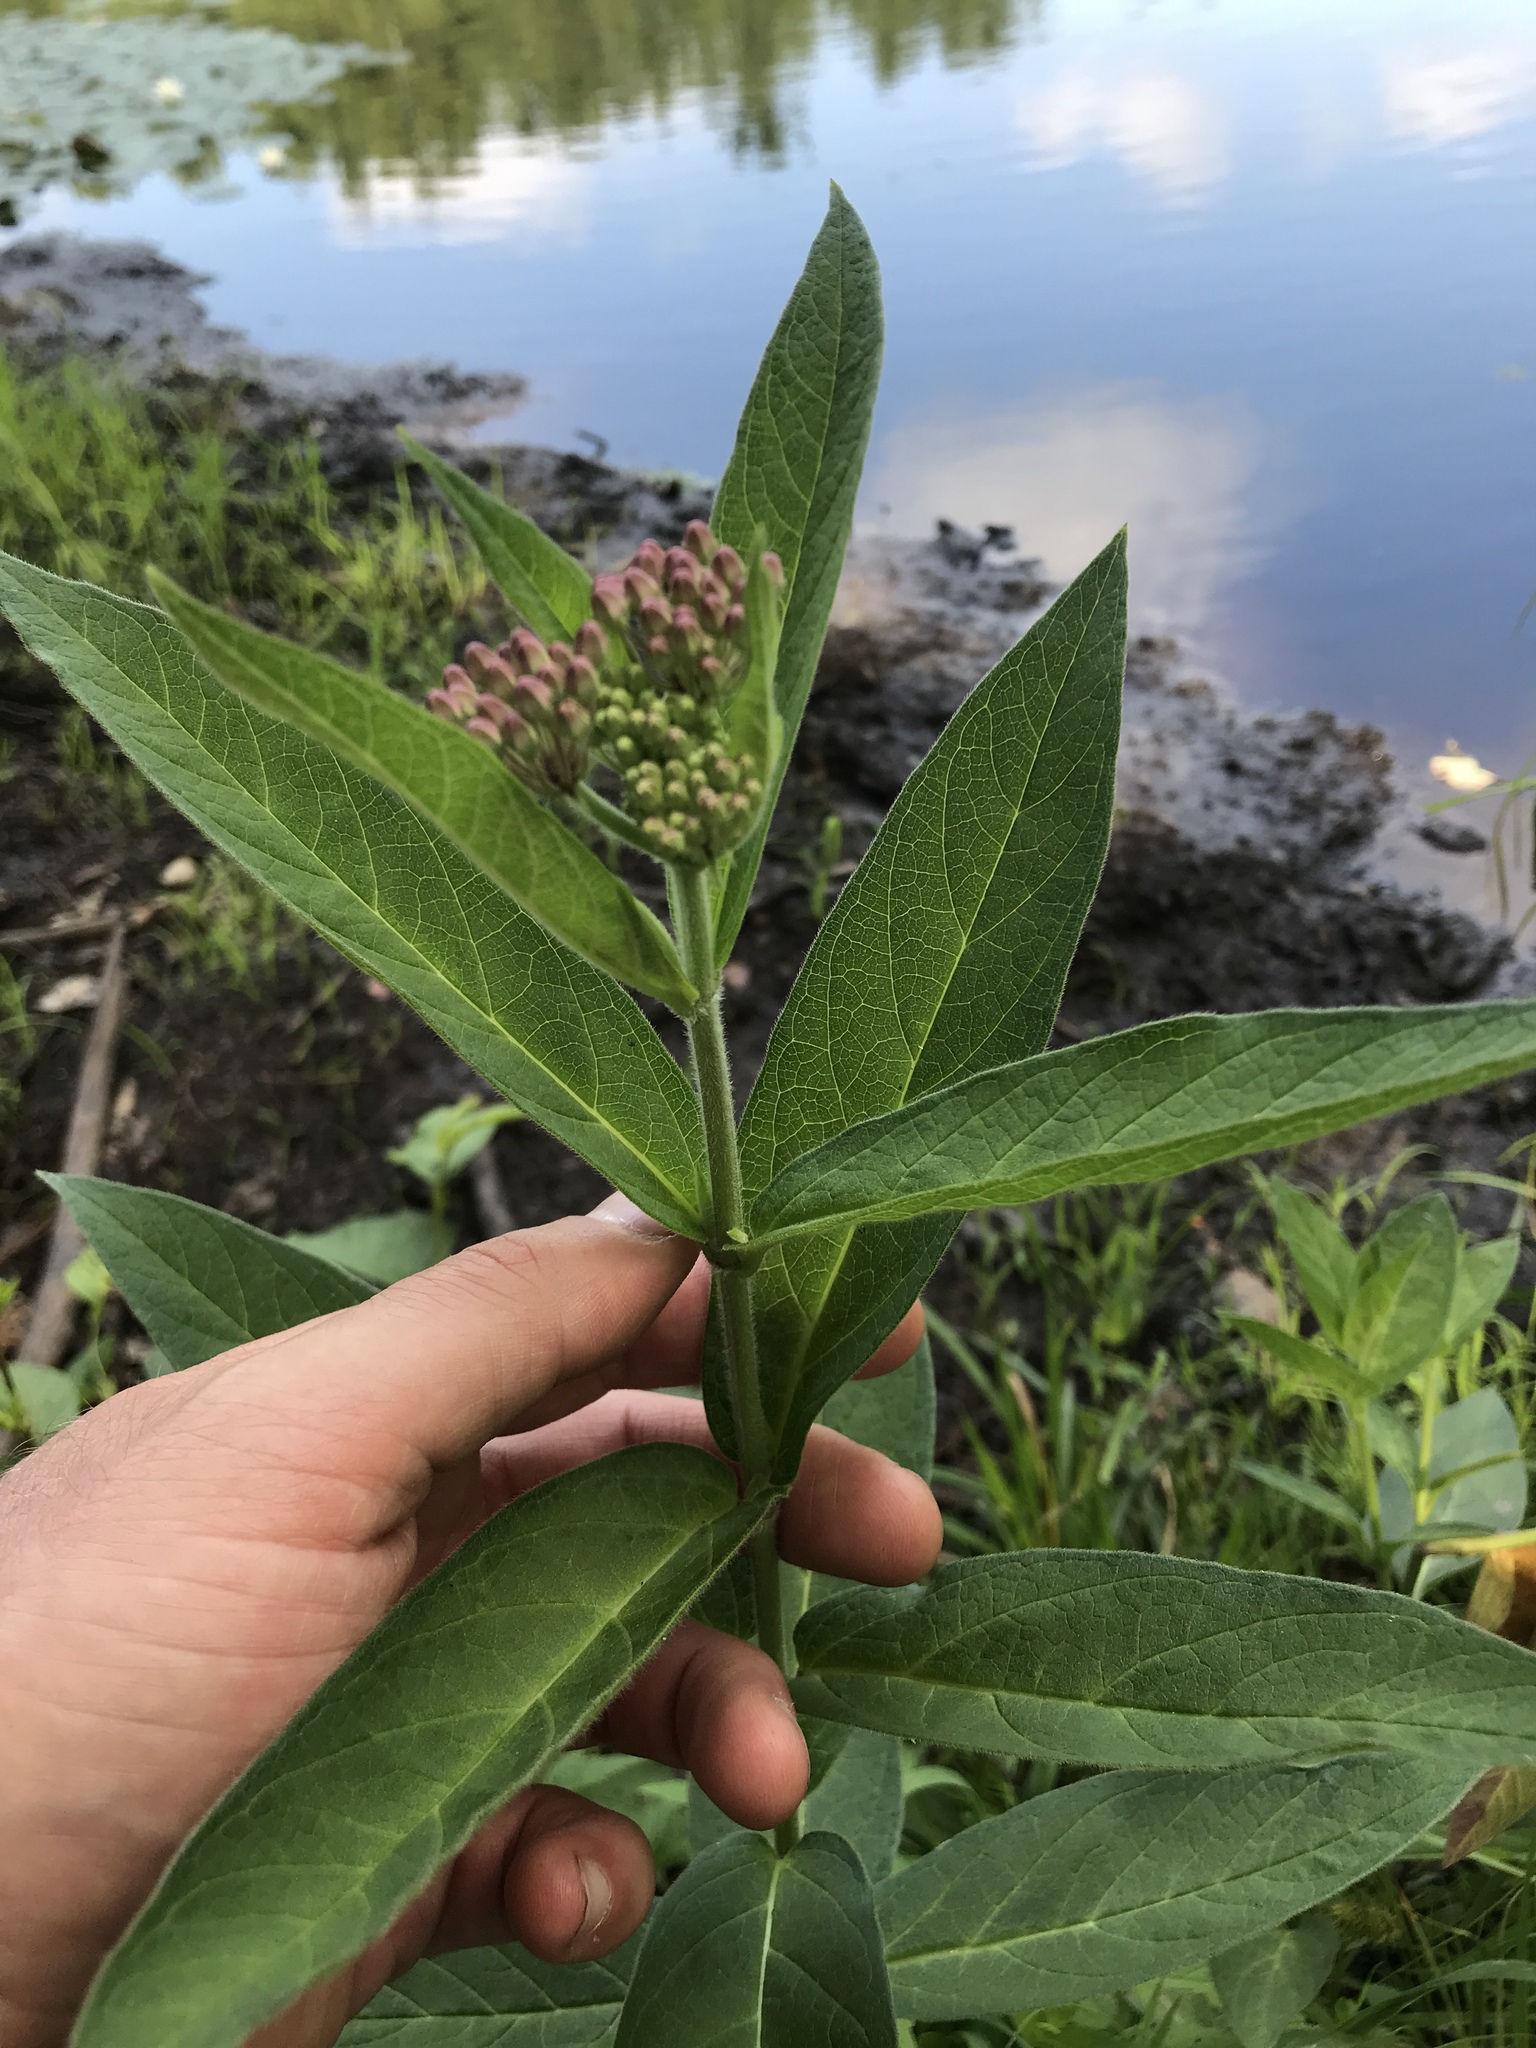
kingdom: Plantae
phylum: Tracheophyta
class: Magnoliopsida
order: Gentianales
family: Apocynaceae
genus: Asclepias
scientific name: Asclepias incarnata
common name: Swamp milkweed
